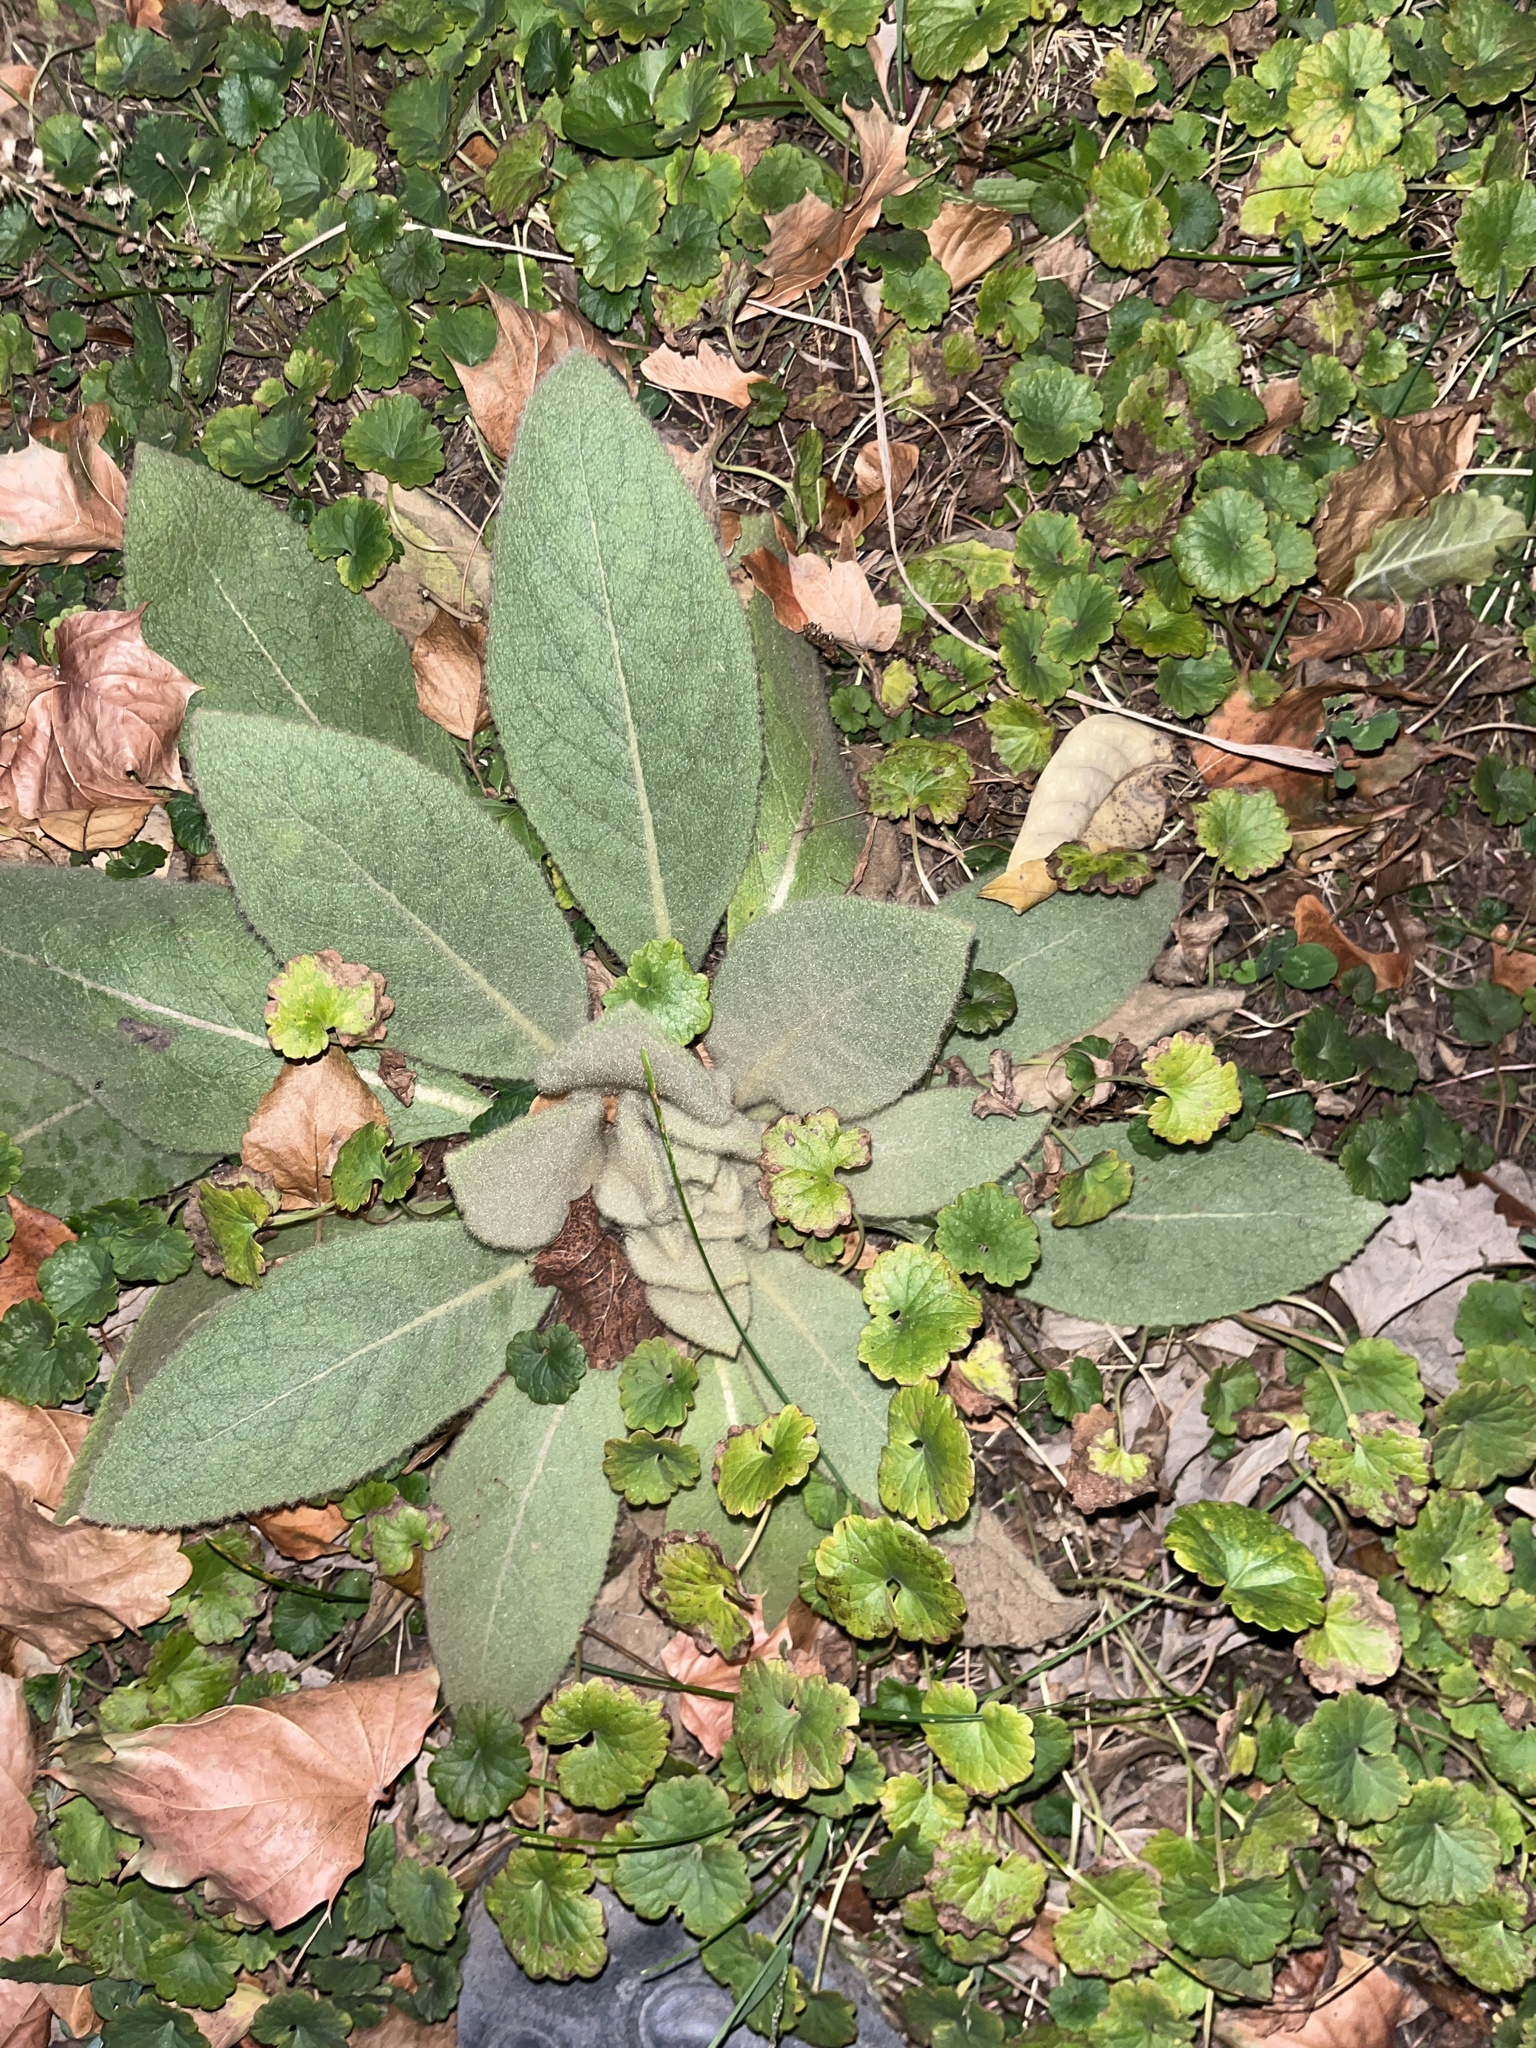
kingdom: Plantae
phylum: Tracheophyta
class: Magnoliopsida
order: Lamiales
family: Scrophulariaceae
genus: Verbascum
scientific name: Verbascum thapsus
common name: Common mullein
